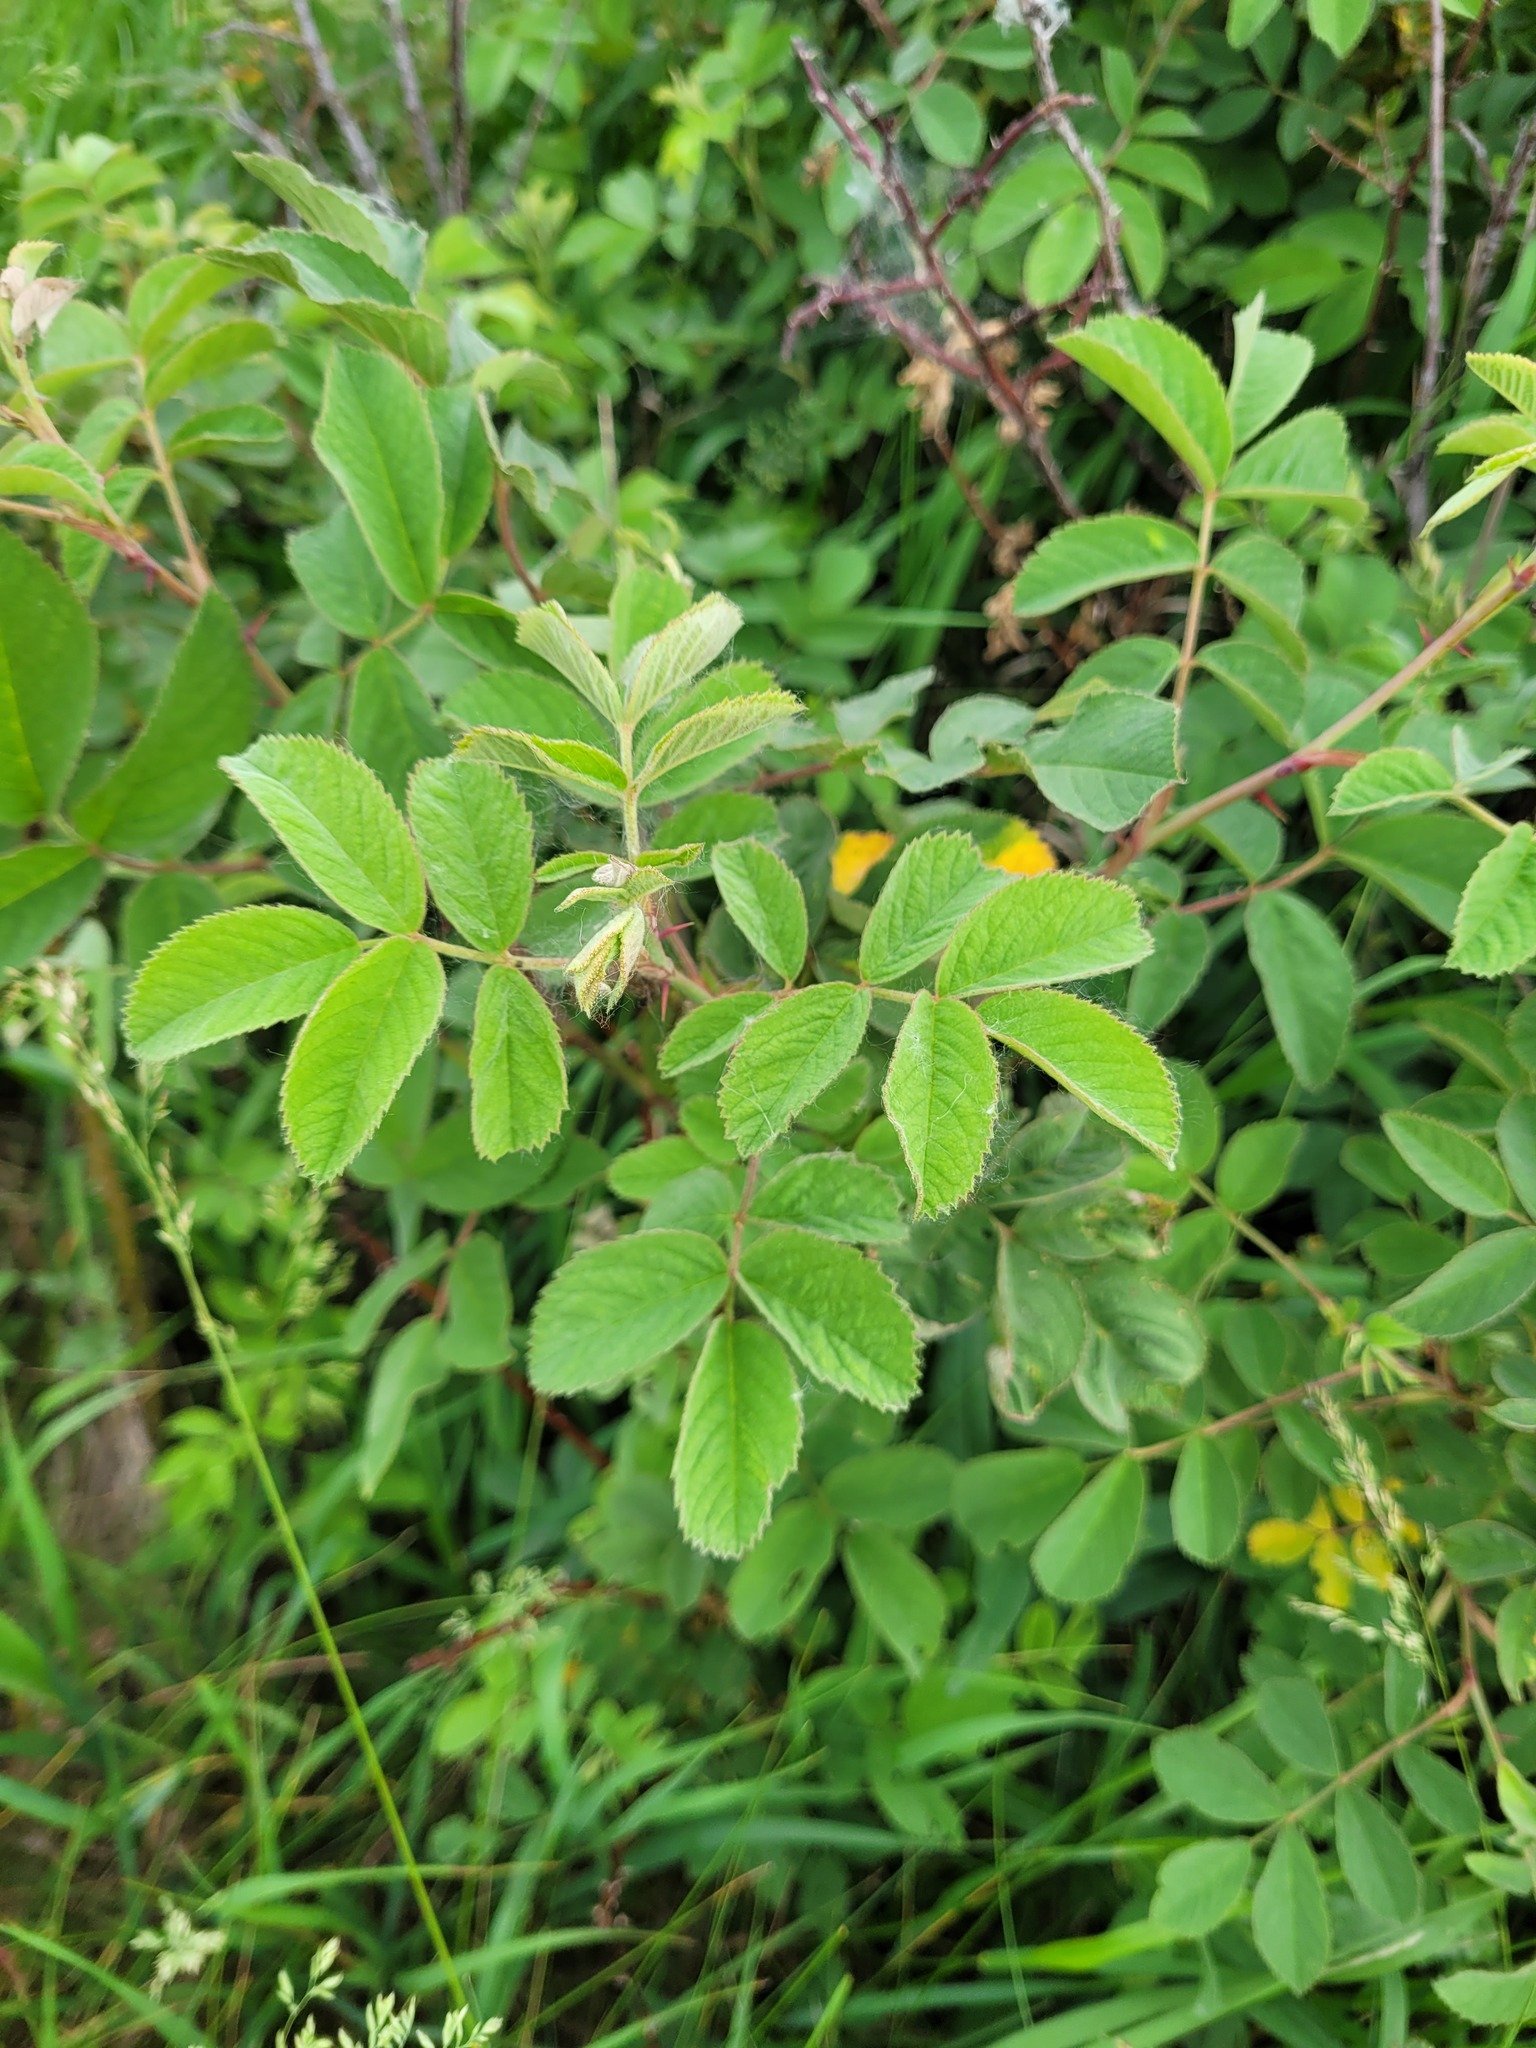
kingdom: Plantae
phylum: Tracheophyta
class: Magnoliopsida
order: Rosales
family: Rosaceae
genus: Rosa
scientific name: Rosa villosa
